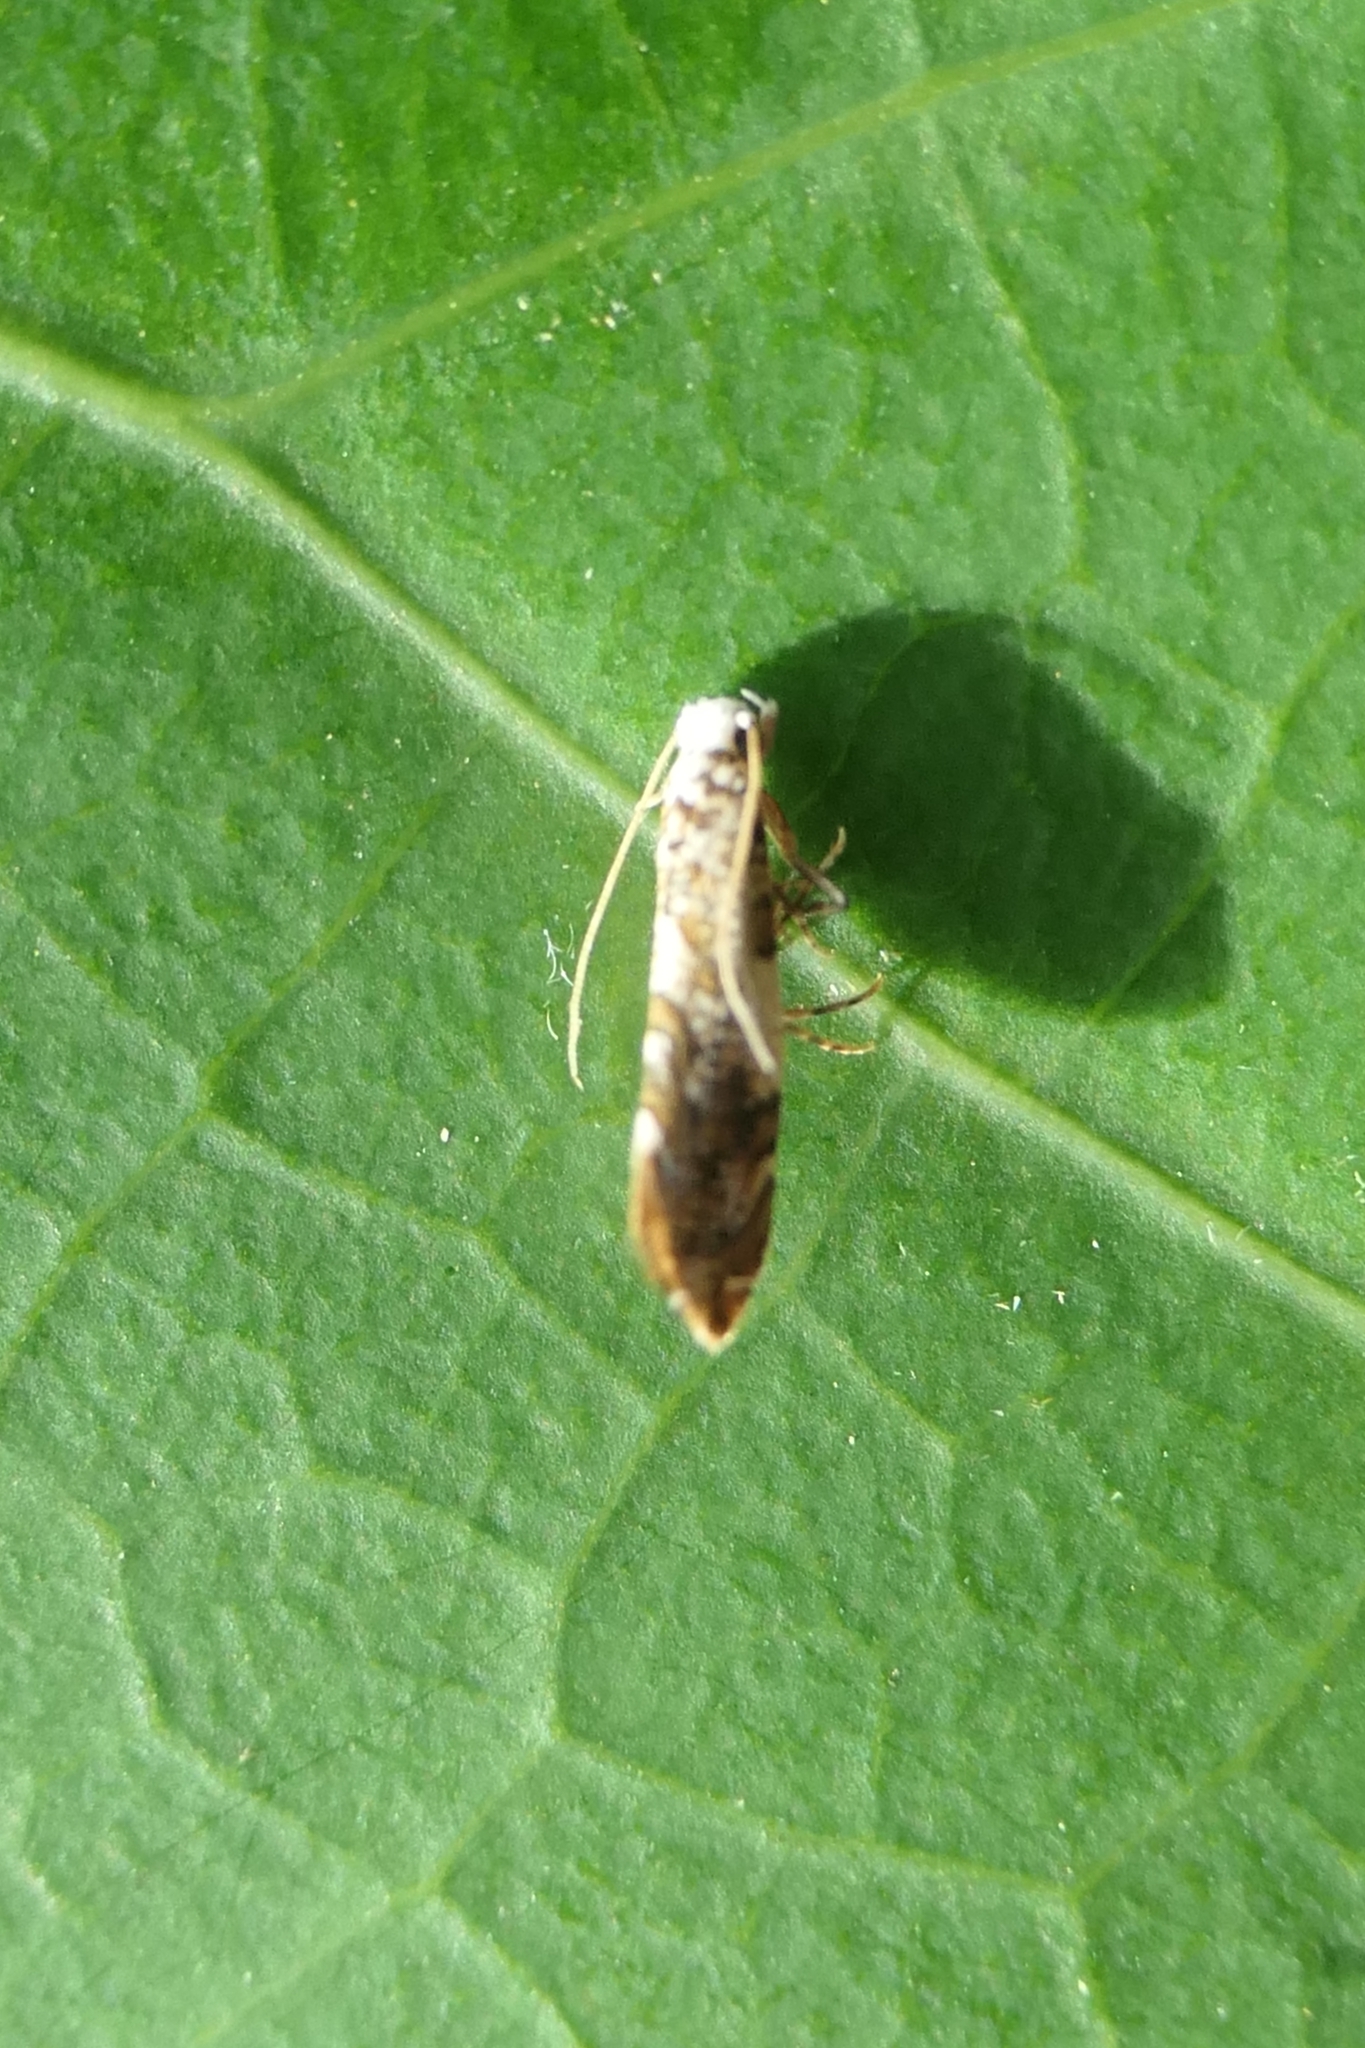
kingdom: Animalia
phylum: Arthropoda
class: Insecta
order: Lepidoptera
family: Tineidae
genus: Eschatotypa
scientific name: Eschatotypa melichrysa
